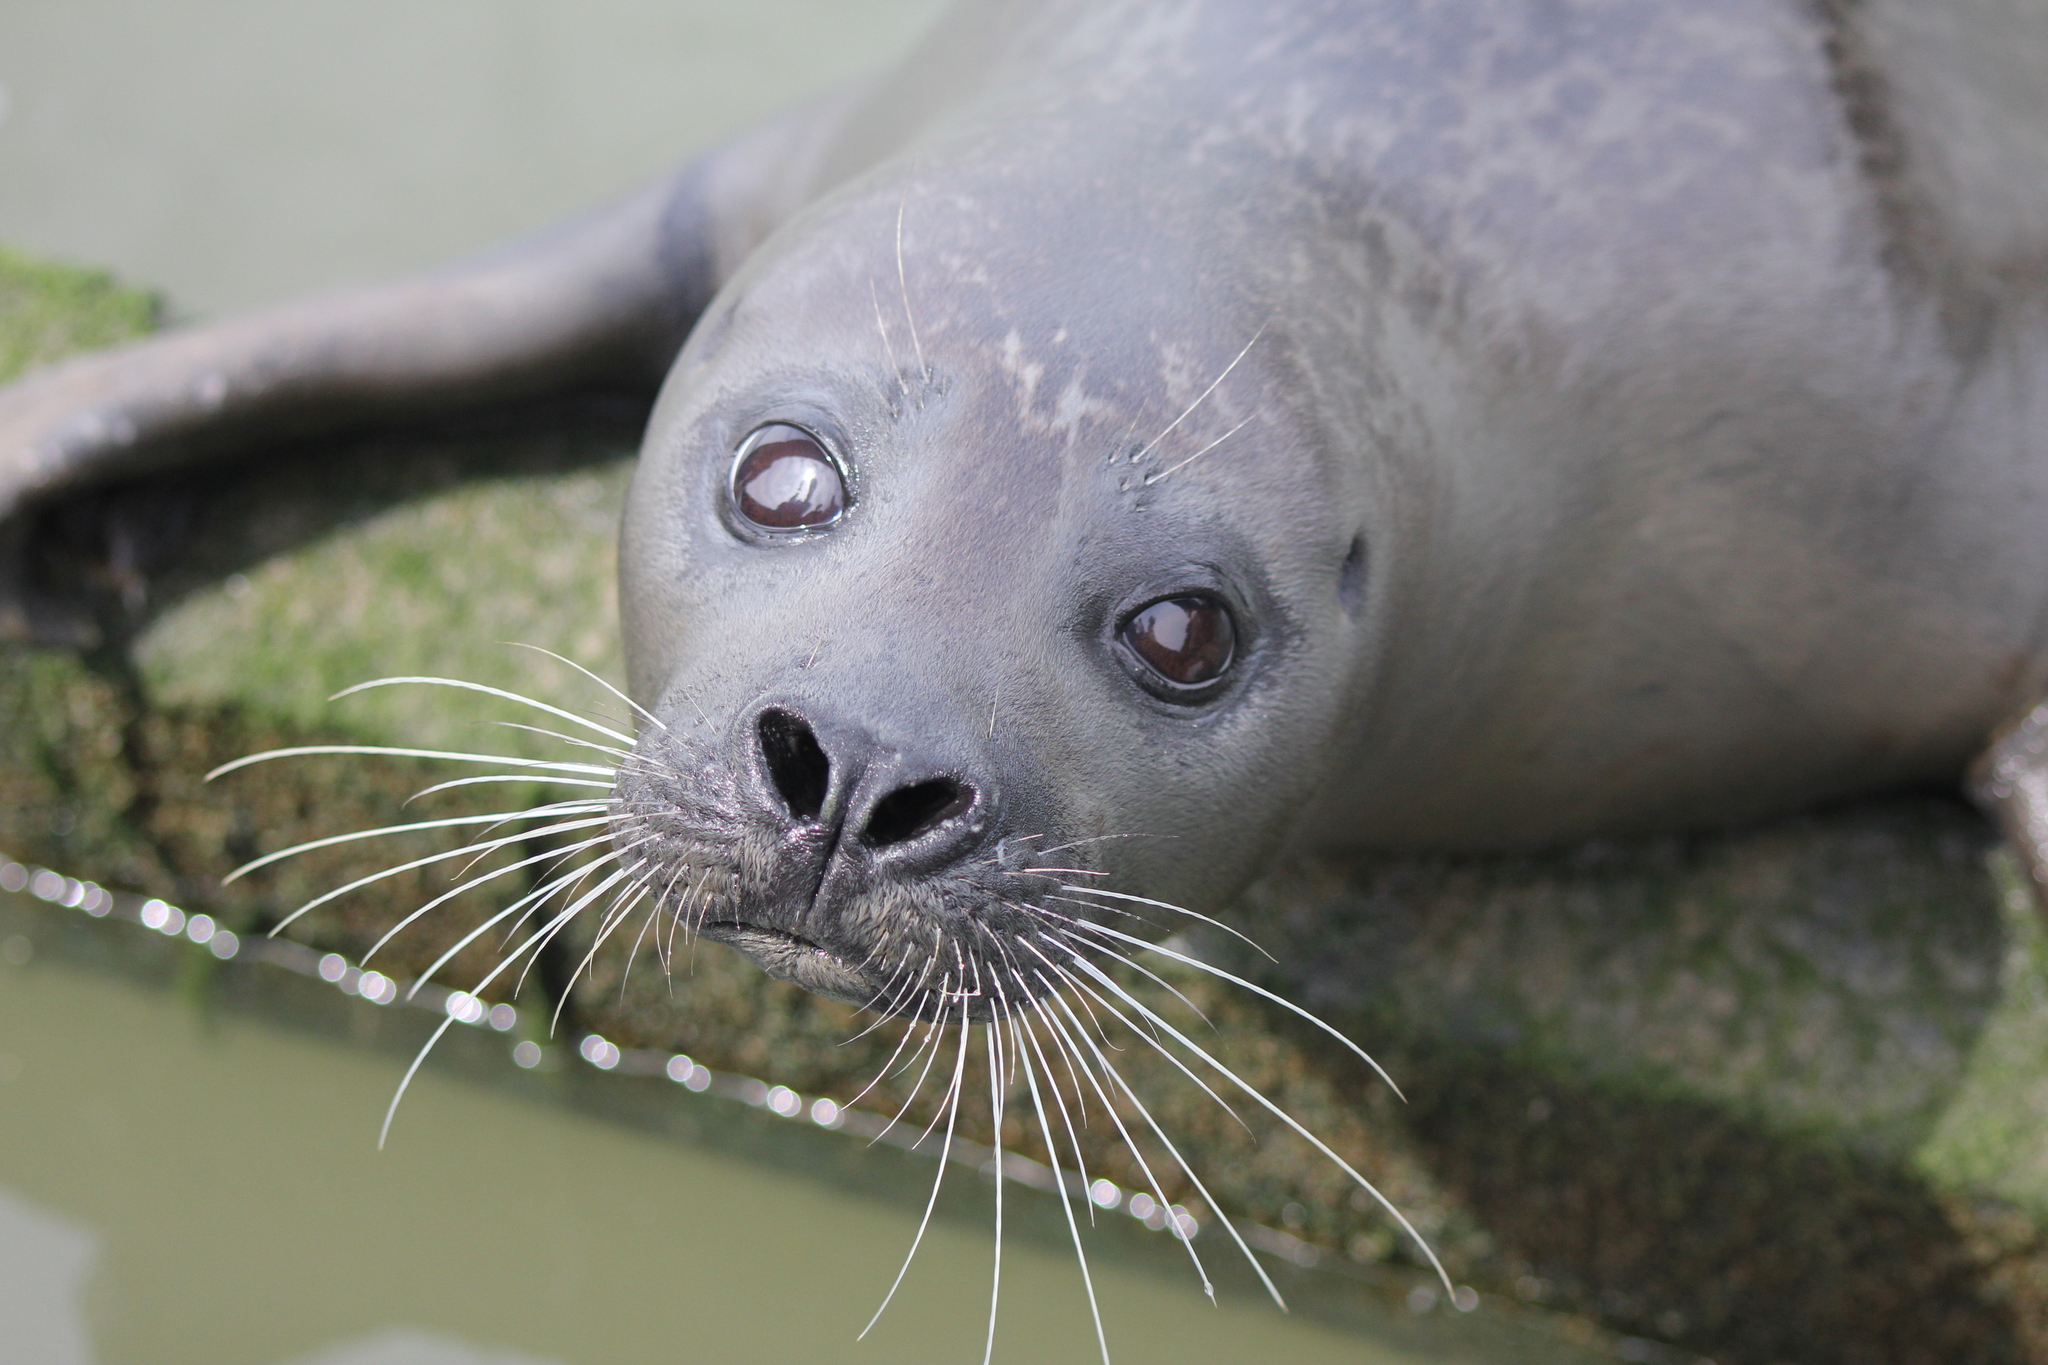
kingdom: Animalia
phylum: Chordata
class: Mammalia
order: Carnivora
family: Phocidae
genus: Phoca
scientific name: Phoca vitulina
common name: Harbor seal
